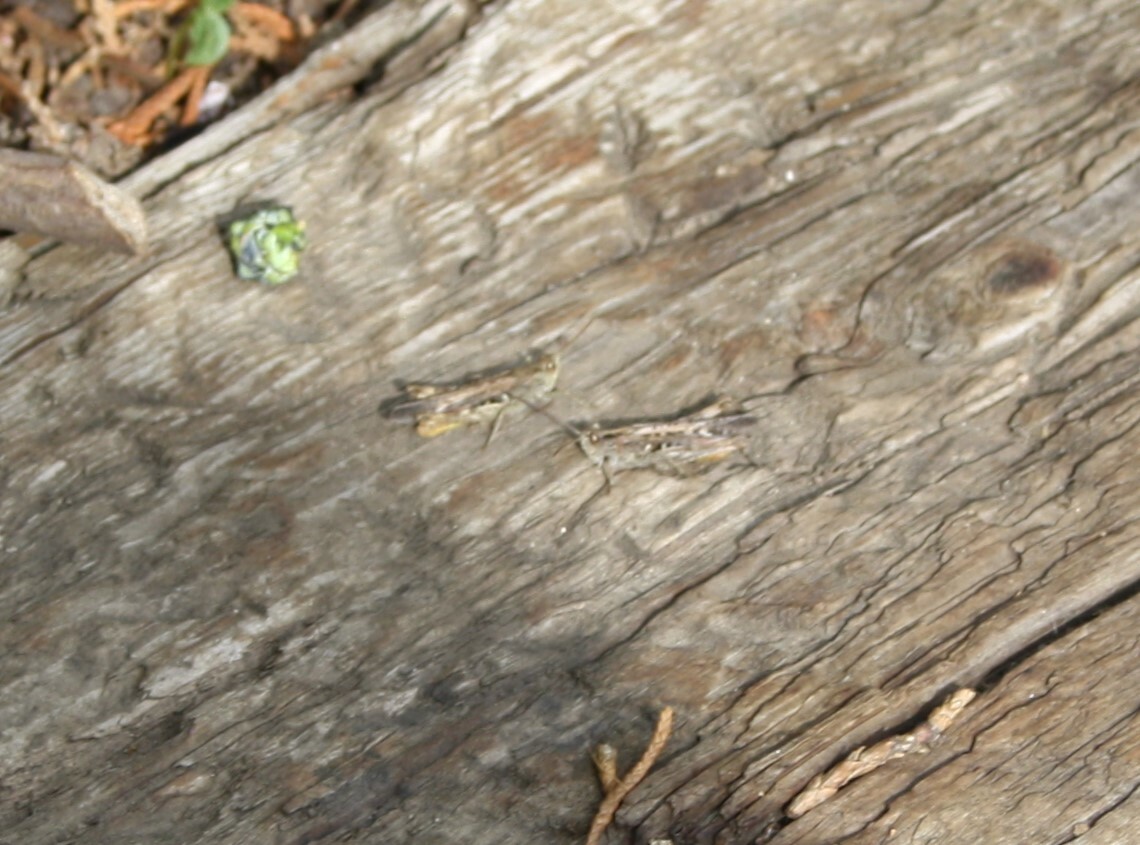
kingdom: Animalia
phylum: Arthropoda
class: Insecta
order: Orthoptera
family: Acrididae
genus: Chorthippus
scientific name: Chorthippus brunneus
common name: Field grasshopper
